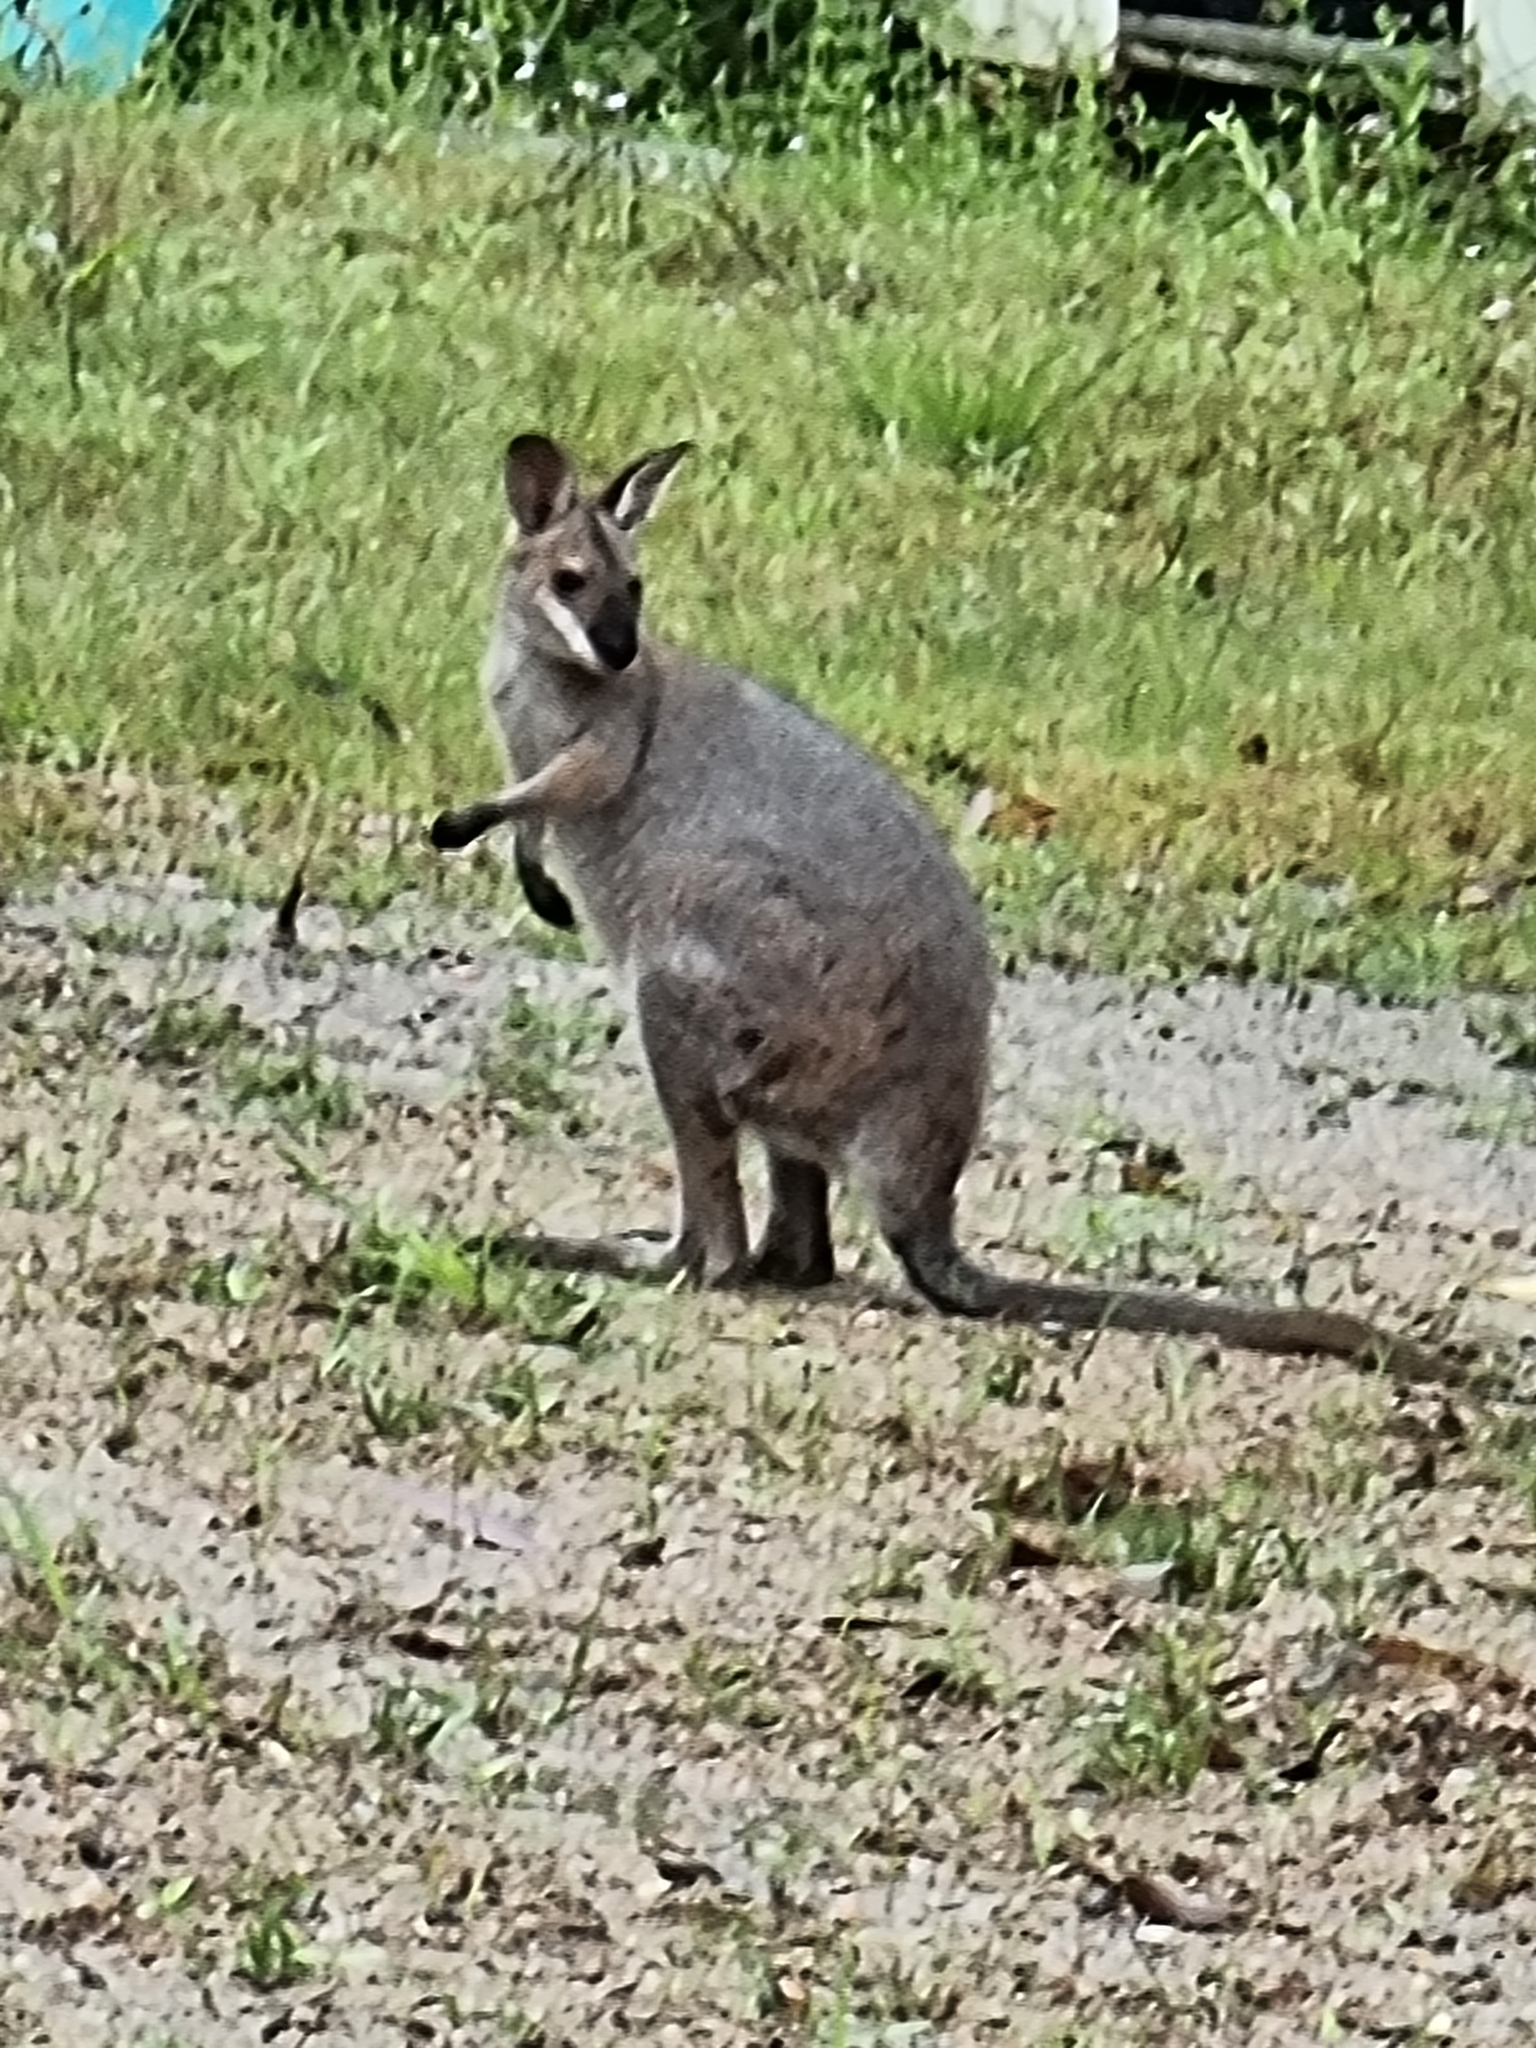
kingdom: Animalia
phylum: Chordata
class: Mammalia
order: Diprotodontia
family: Macropodidae
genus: Notamacropus
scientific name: Notamacropus rufogriseus
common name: Red-necked wallaby
